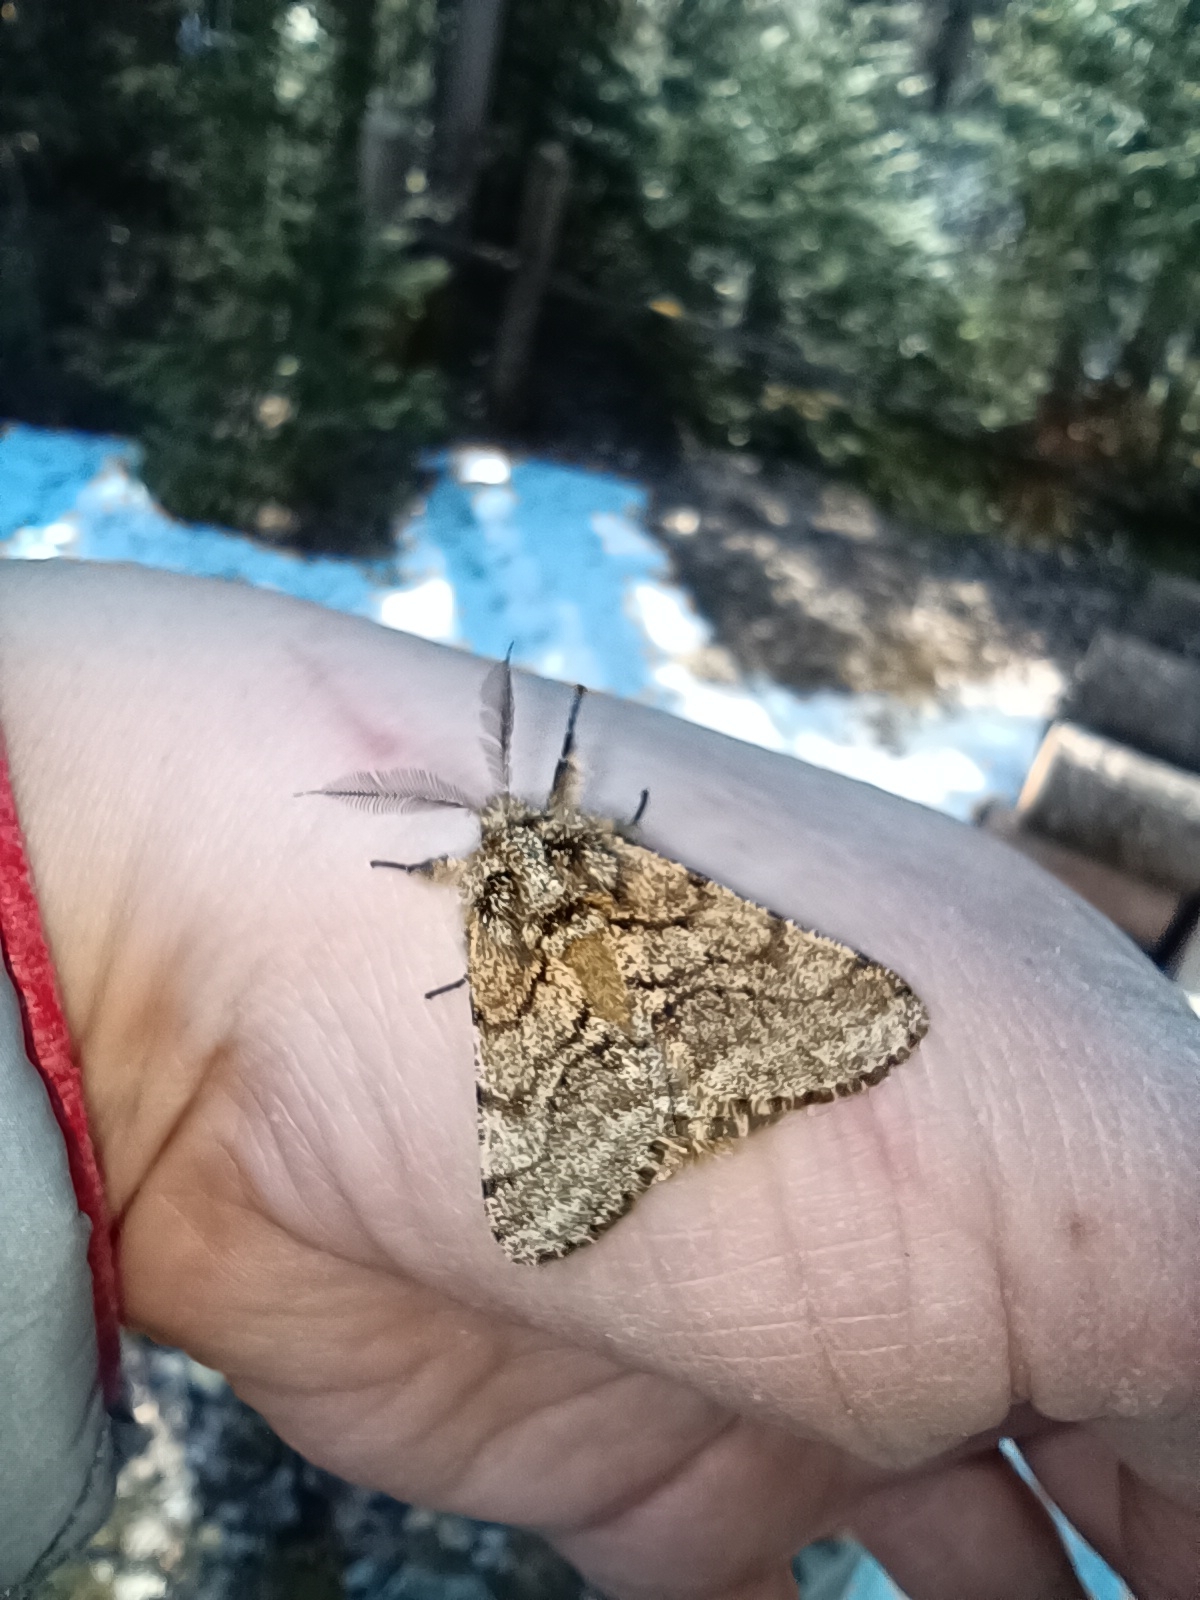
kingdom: Animalia
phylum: Arthropoda
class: Insecta
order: Lepidoptera
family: Geometridae
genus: Lycia
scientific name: Lycia hirtaria
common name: Brindled beauty
